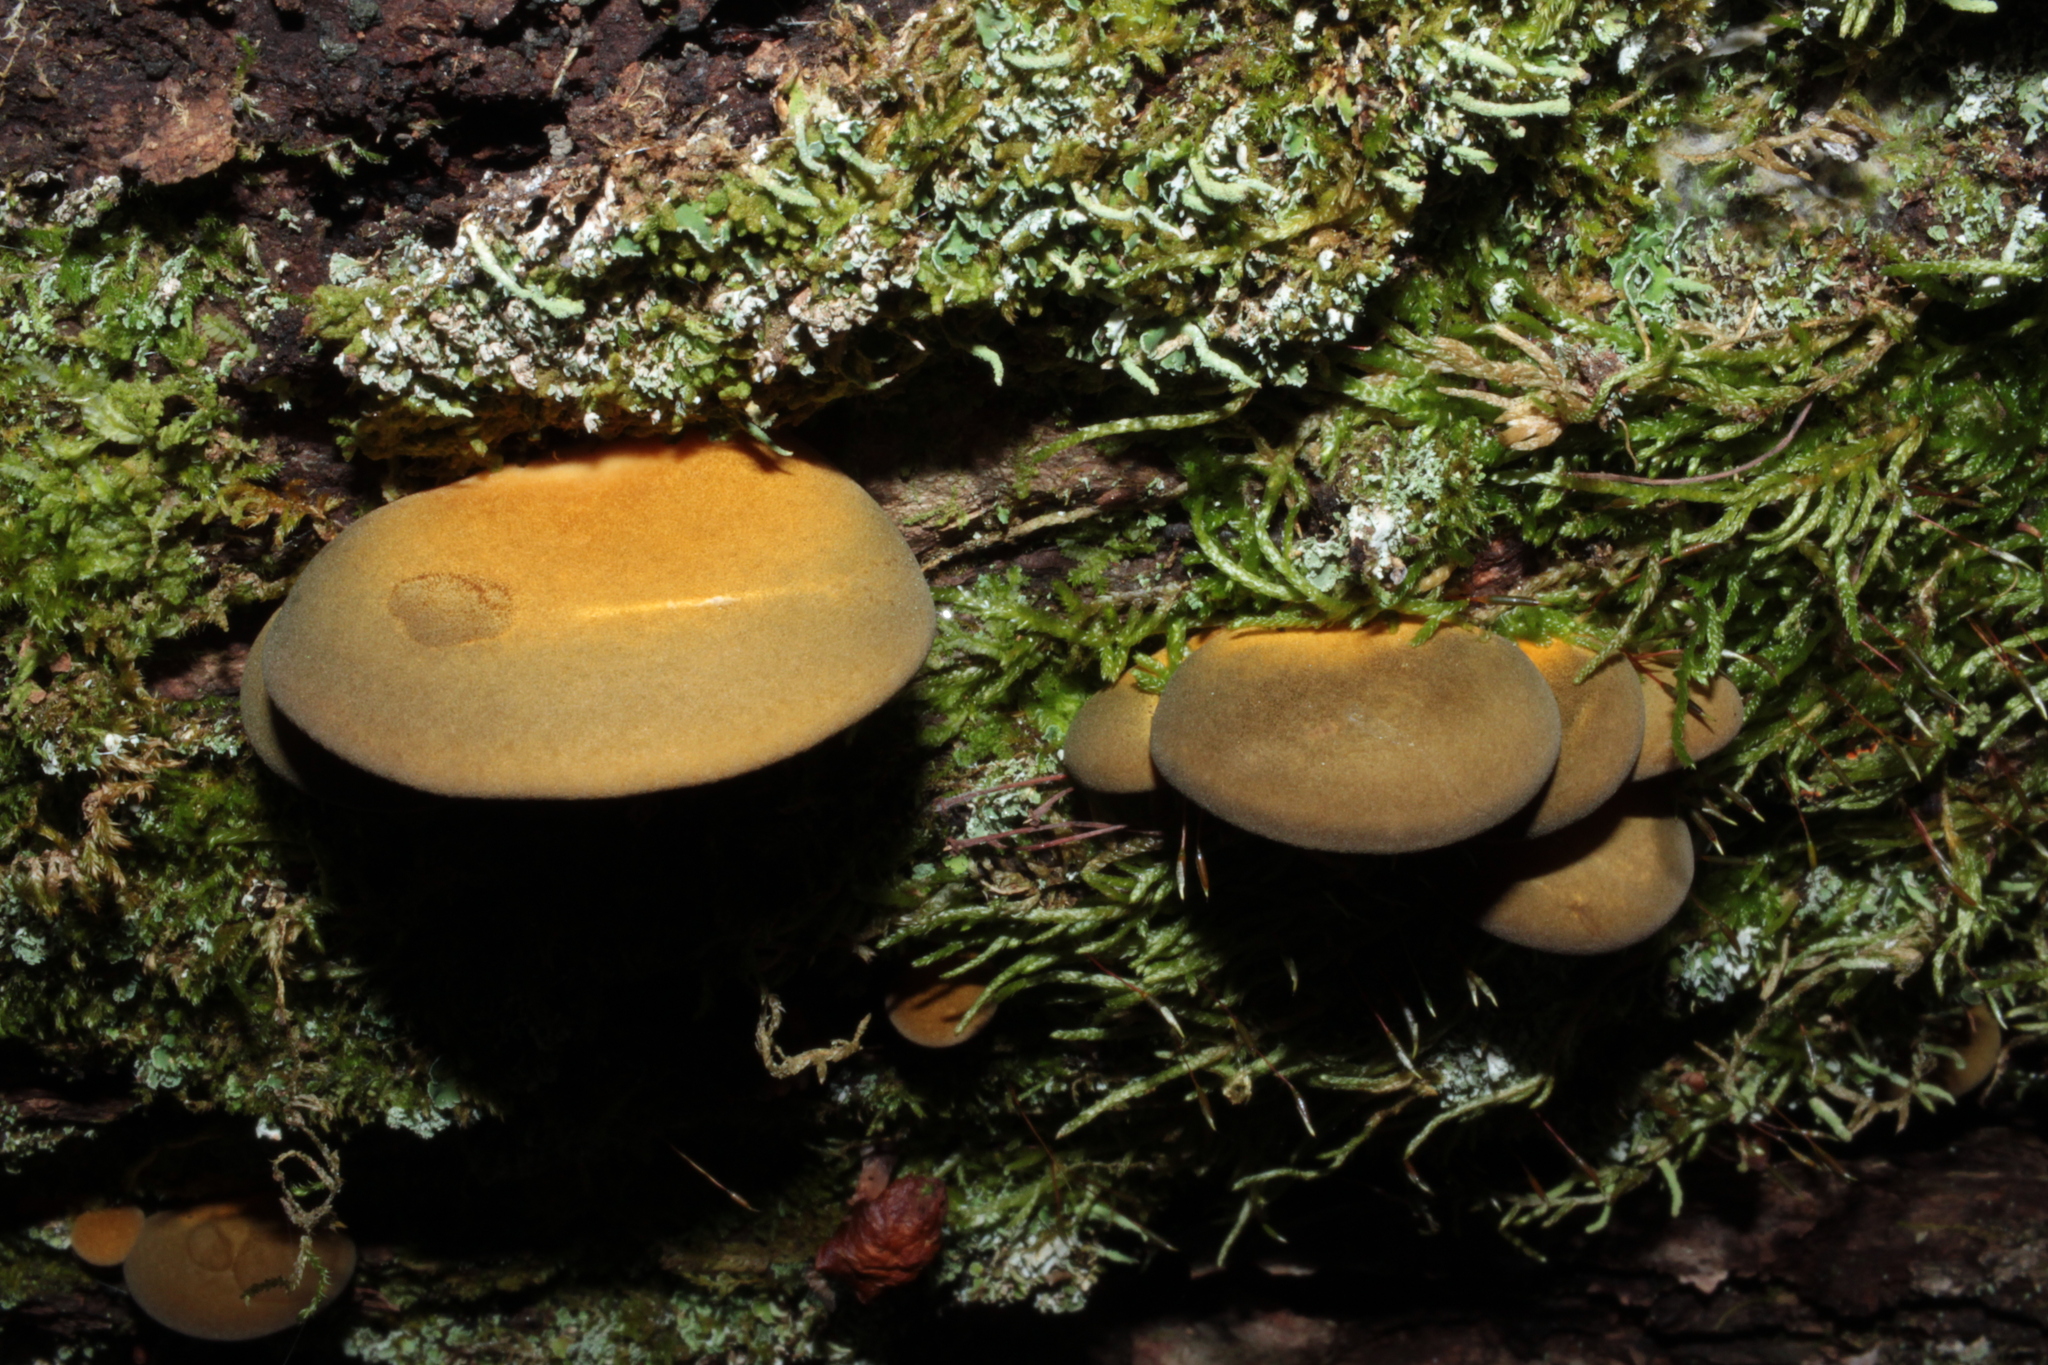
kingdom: Fungi
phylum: Basidiomycota
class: Agaricomycetes
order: Agaricales
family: Sarcomyxaceae
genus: Sarcomyxa
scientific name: Sarcomyxa serotina
